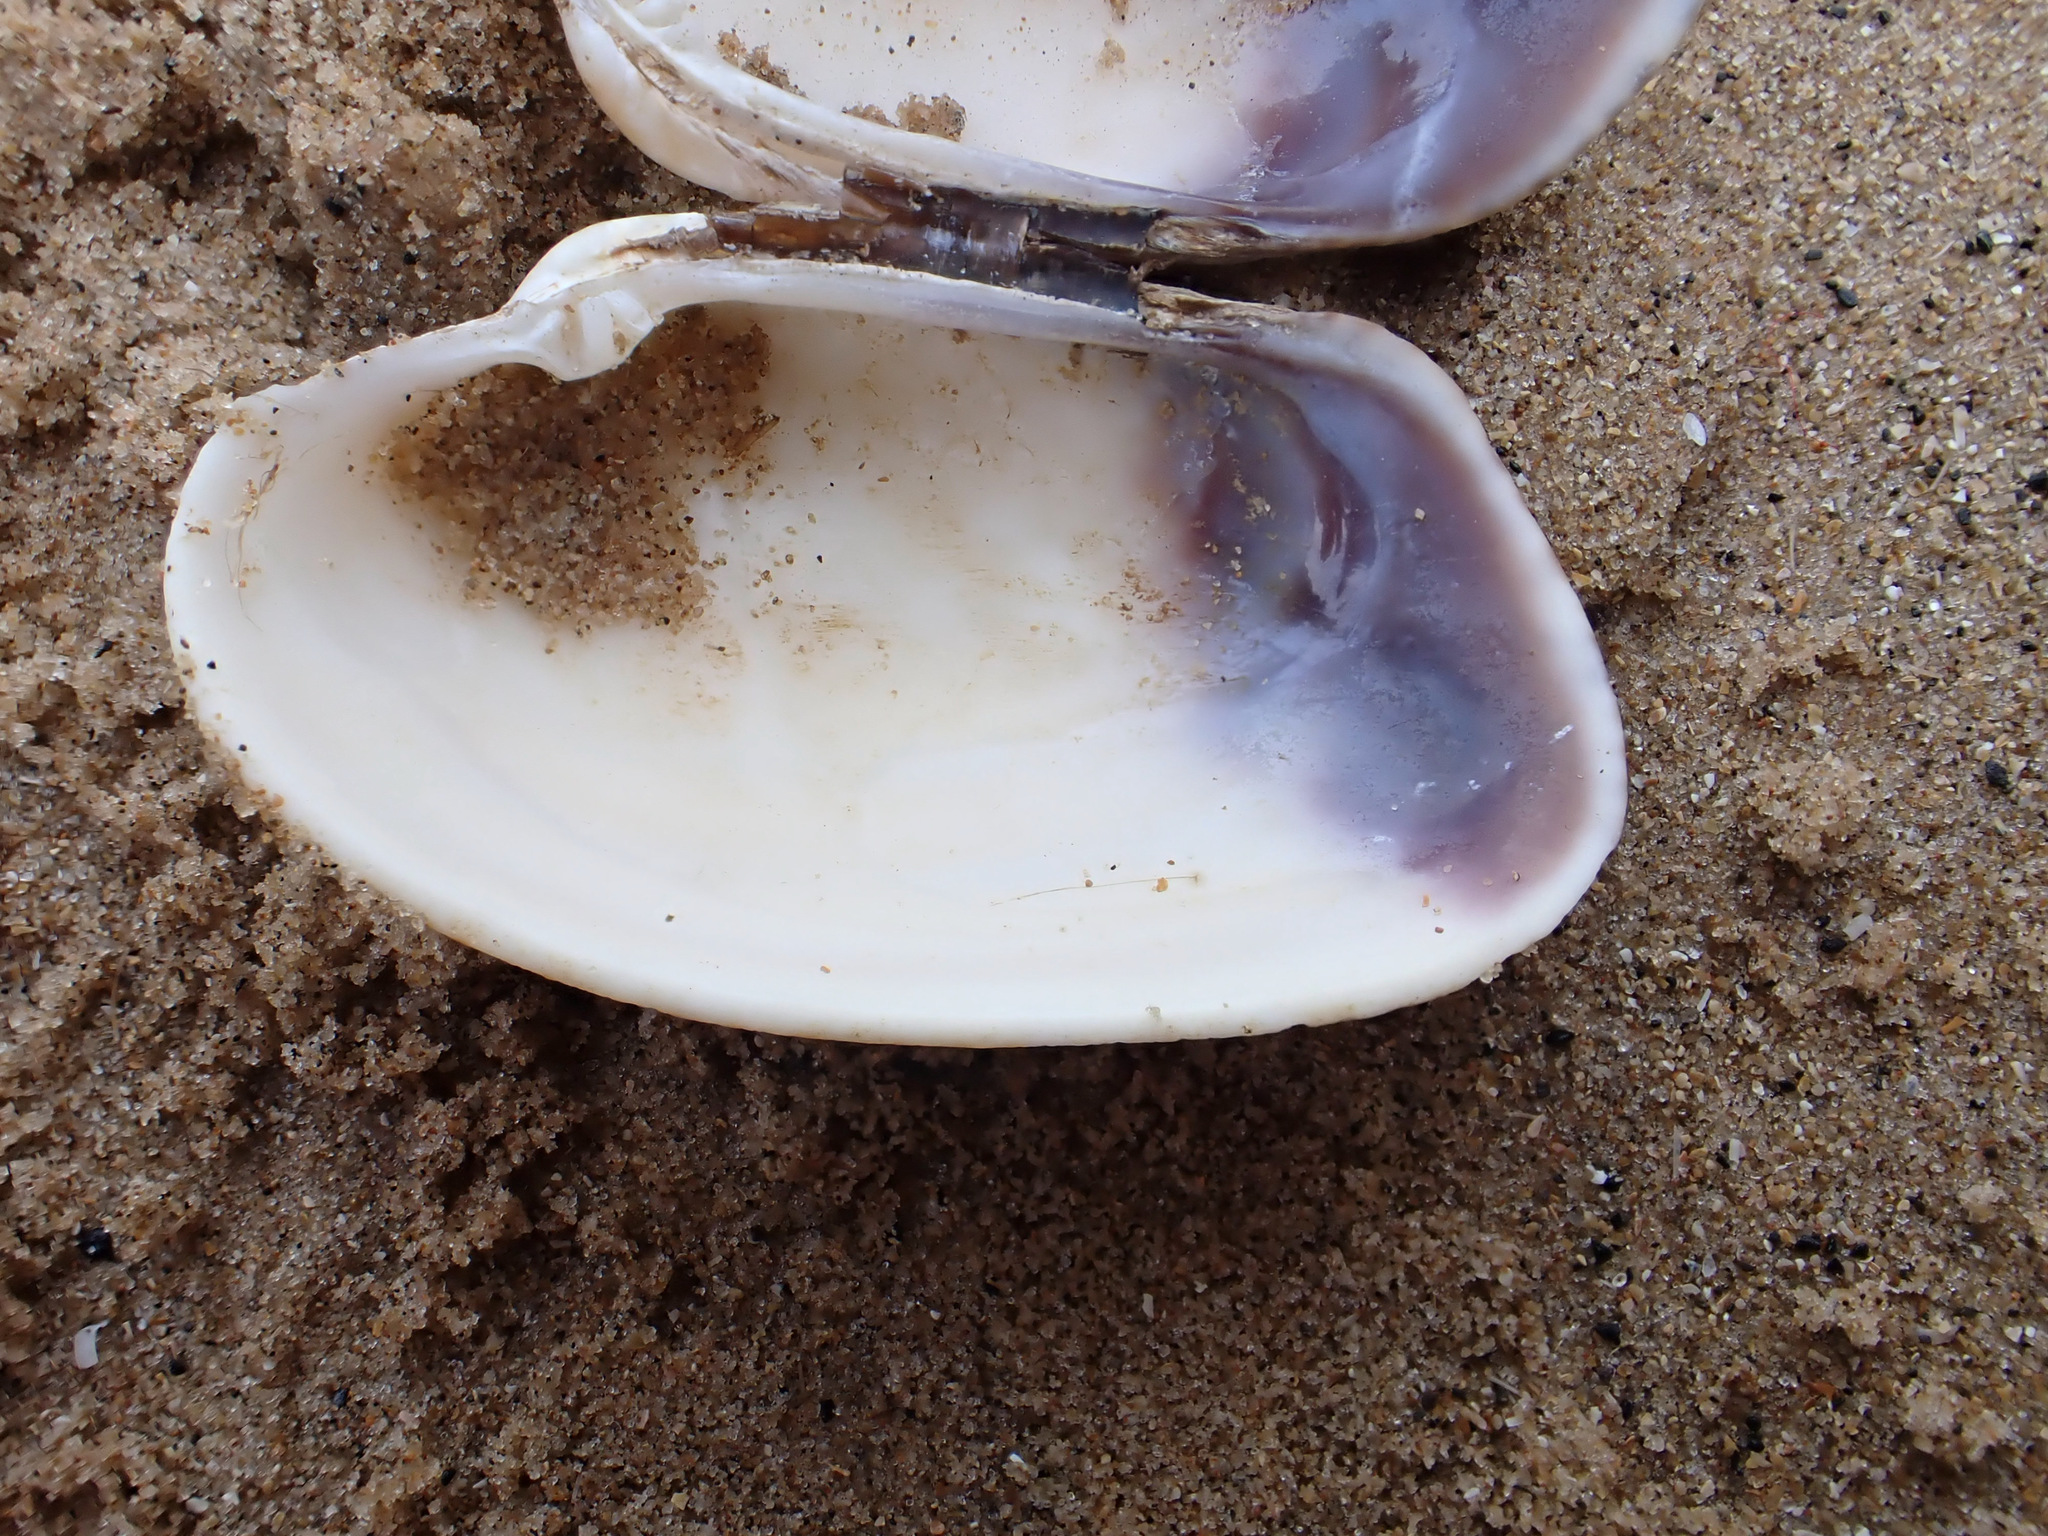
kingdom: Animalia
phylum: Mollusca
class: Bivalvia
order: Venerida
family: Veneridae
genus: Venerupis
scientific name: Venerupis corrugata
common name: Pullet carpet shell
